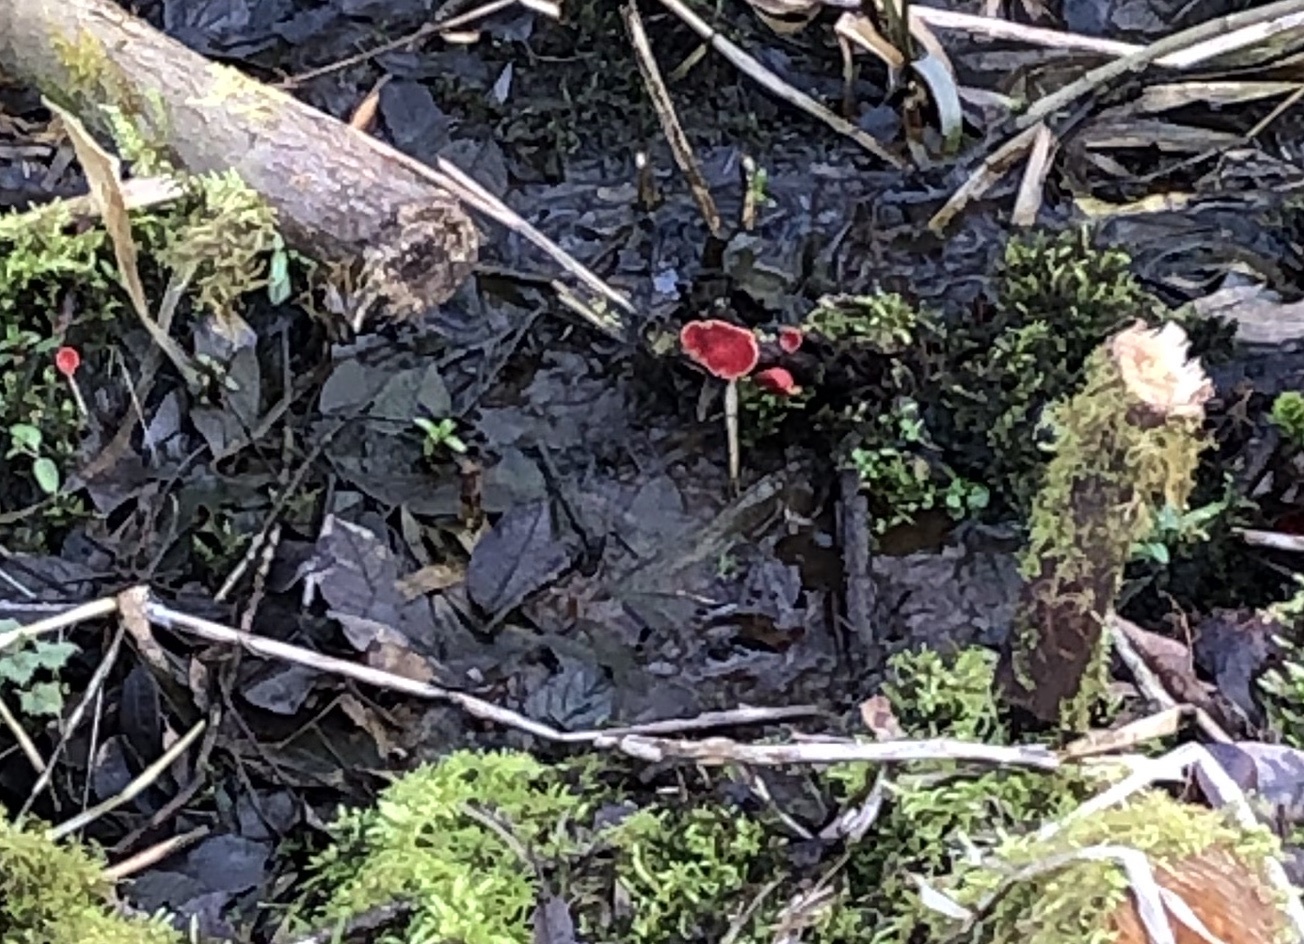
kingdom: Fungi
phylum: Ascomycota
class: Pezizomycetes
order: Pezizales
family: Sarcoscyphaceae
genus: Sarcoscypha
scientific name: Sarcoscypha
